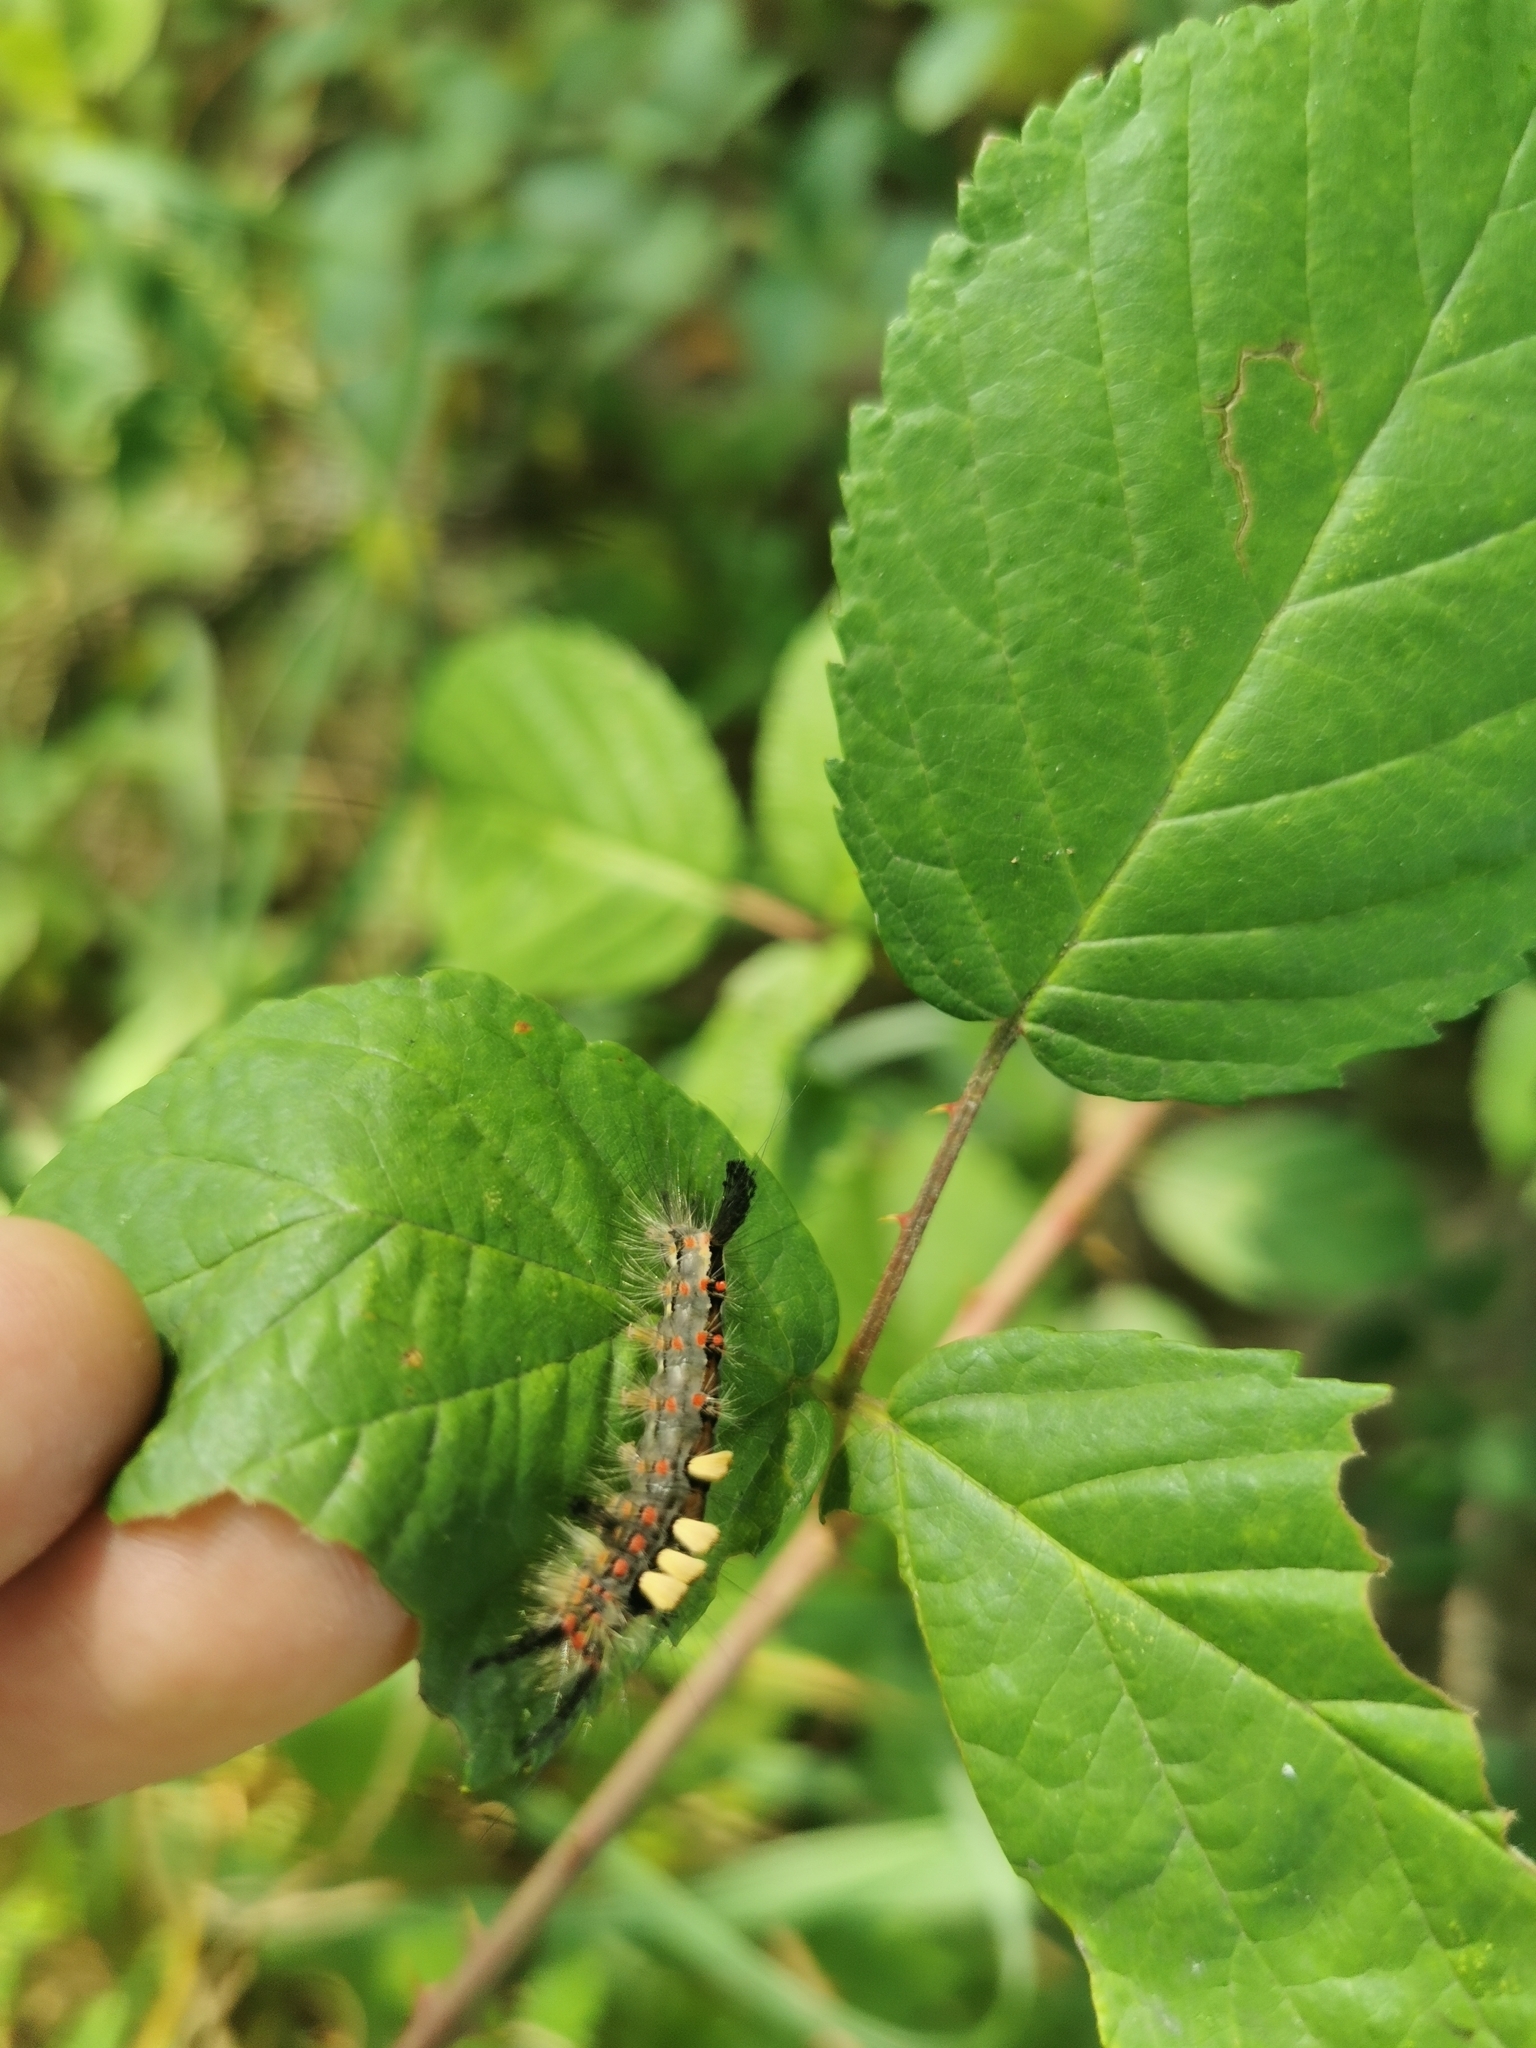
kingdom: Animalia
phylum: Arthropoda
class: Insecta
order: Lepidoptera
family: Erebidae
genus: Orgyia
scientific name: Orgyia antiqua
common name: Vapourer
